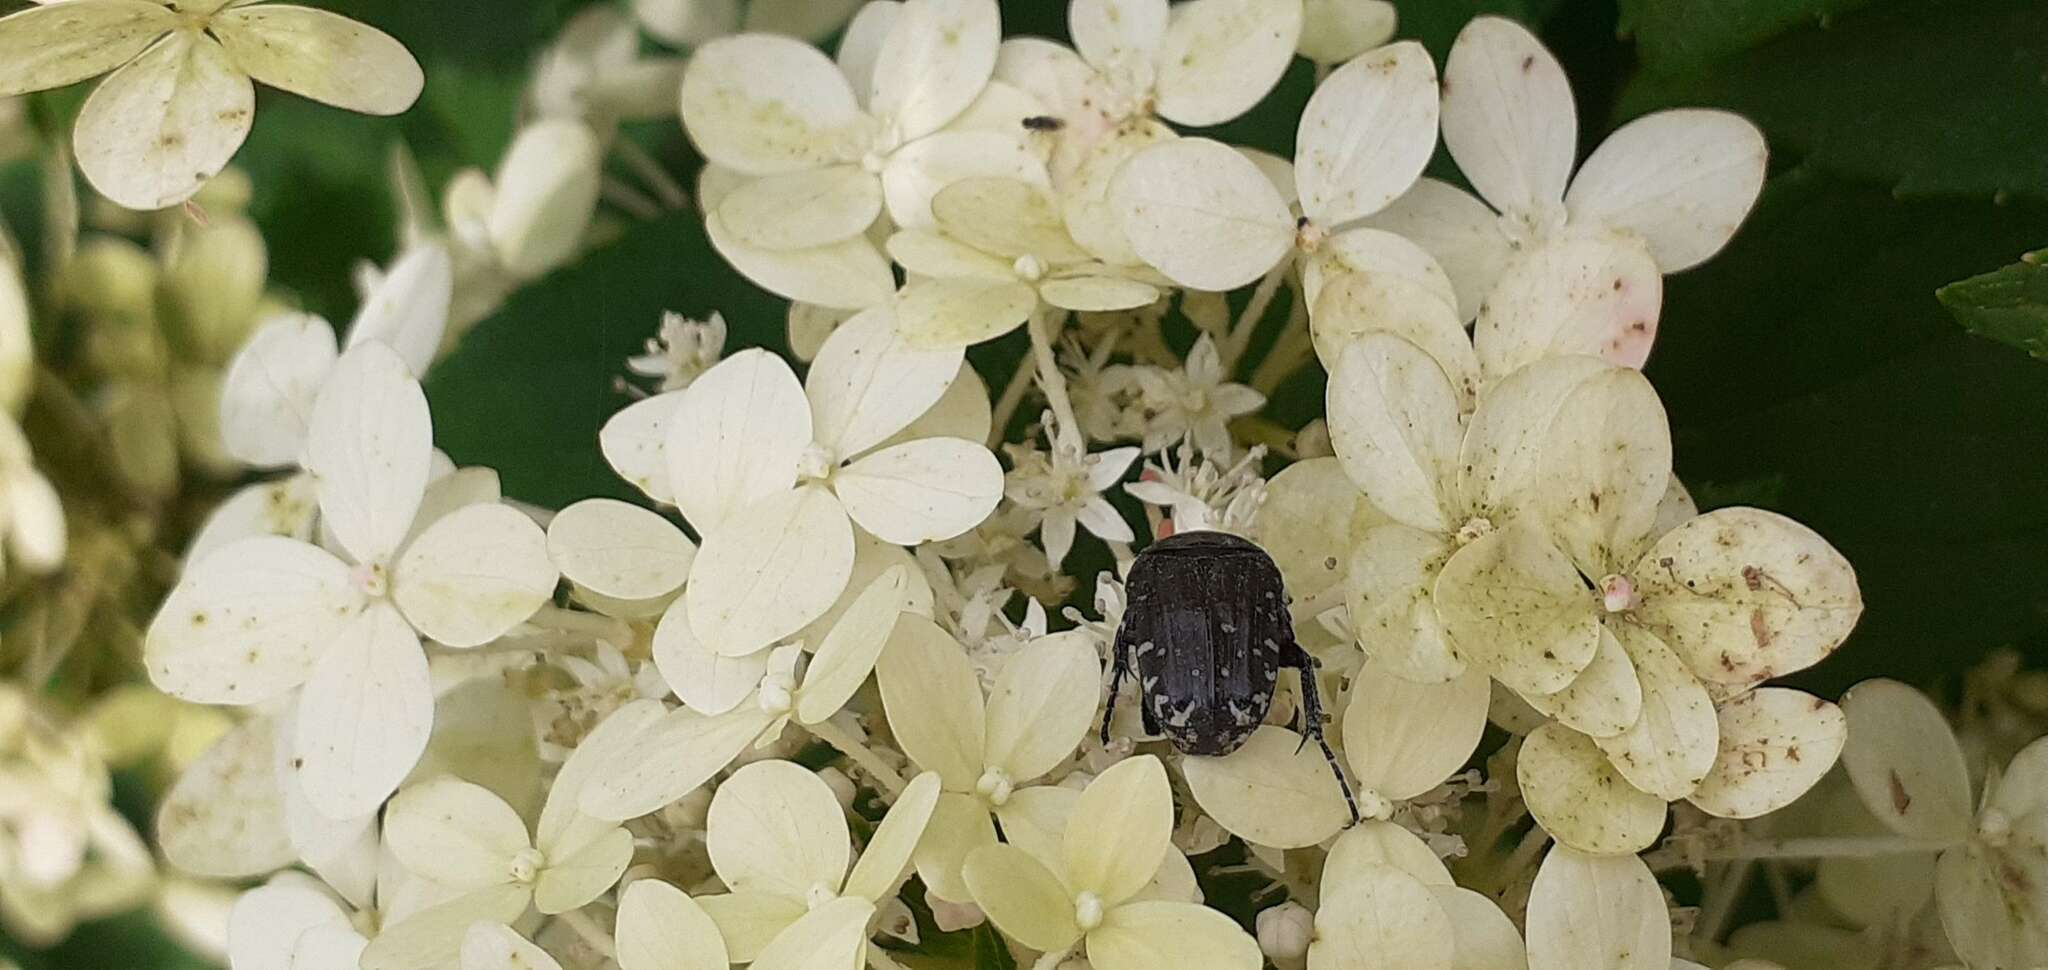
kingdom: Animalia
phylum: Arthropoda
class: Insecta
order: Coleoptera
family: Scarabaeidae
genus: Oxythyrea
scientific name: Oxythyrea funesta
